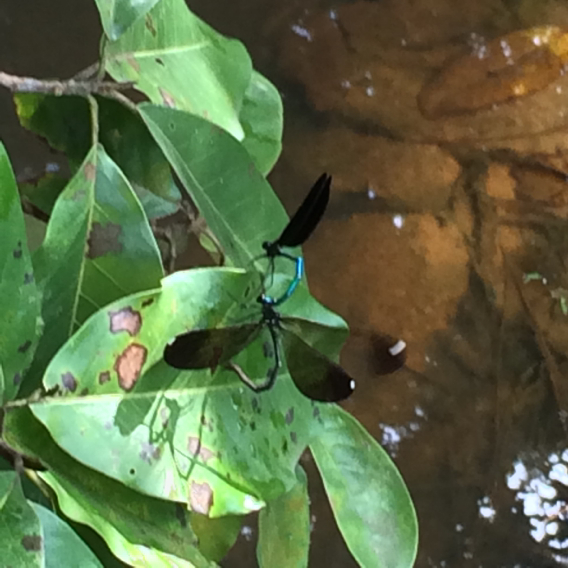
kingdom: Animalia
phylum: Arthropoda
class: Insecta
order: Odonata
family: Calopterygidae
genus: Calopteryx
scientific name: Calopteryx maculata
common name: Ebony jewelwing
